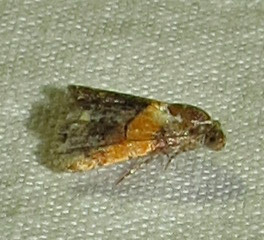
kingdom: Animalia
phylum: Arthropoda
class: Insecta
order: Lepidoptera
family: Noctuidae
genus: Tripudia
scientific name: Tripudia flavofasciata
